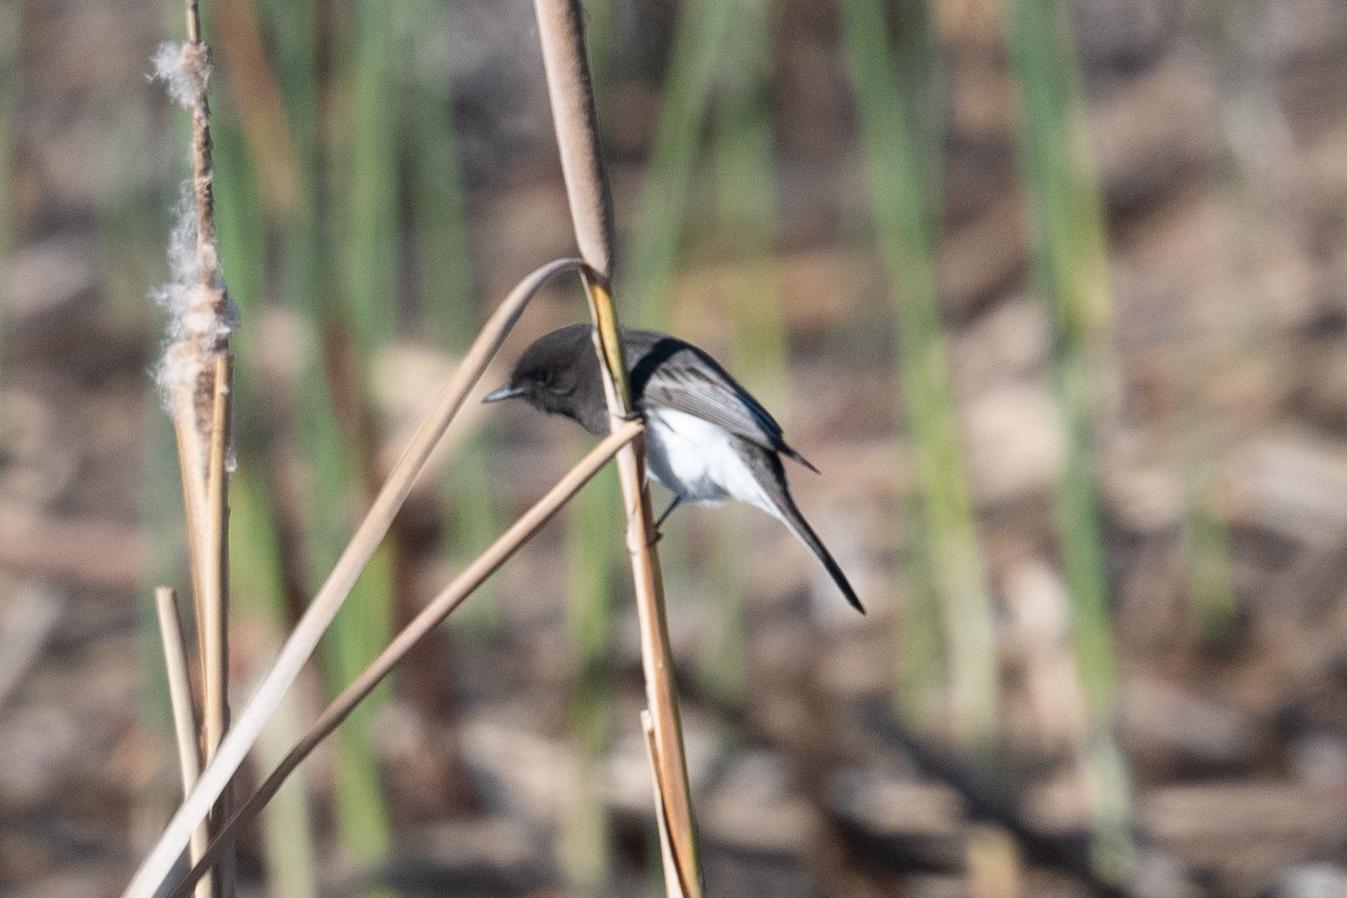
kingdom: Animalia
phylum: Chordata
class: Aves
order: Passeriformes
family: Tyrannidae
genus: Sayornis
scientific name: Sayornis nigricans
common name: Black phoebe
